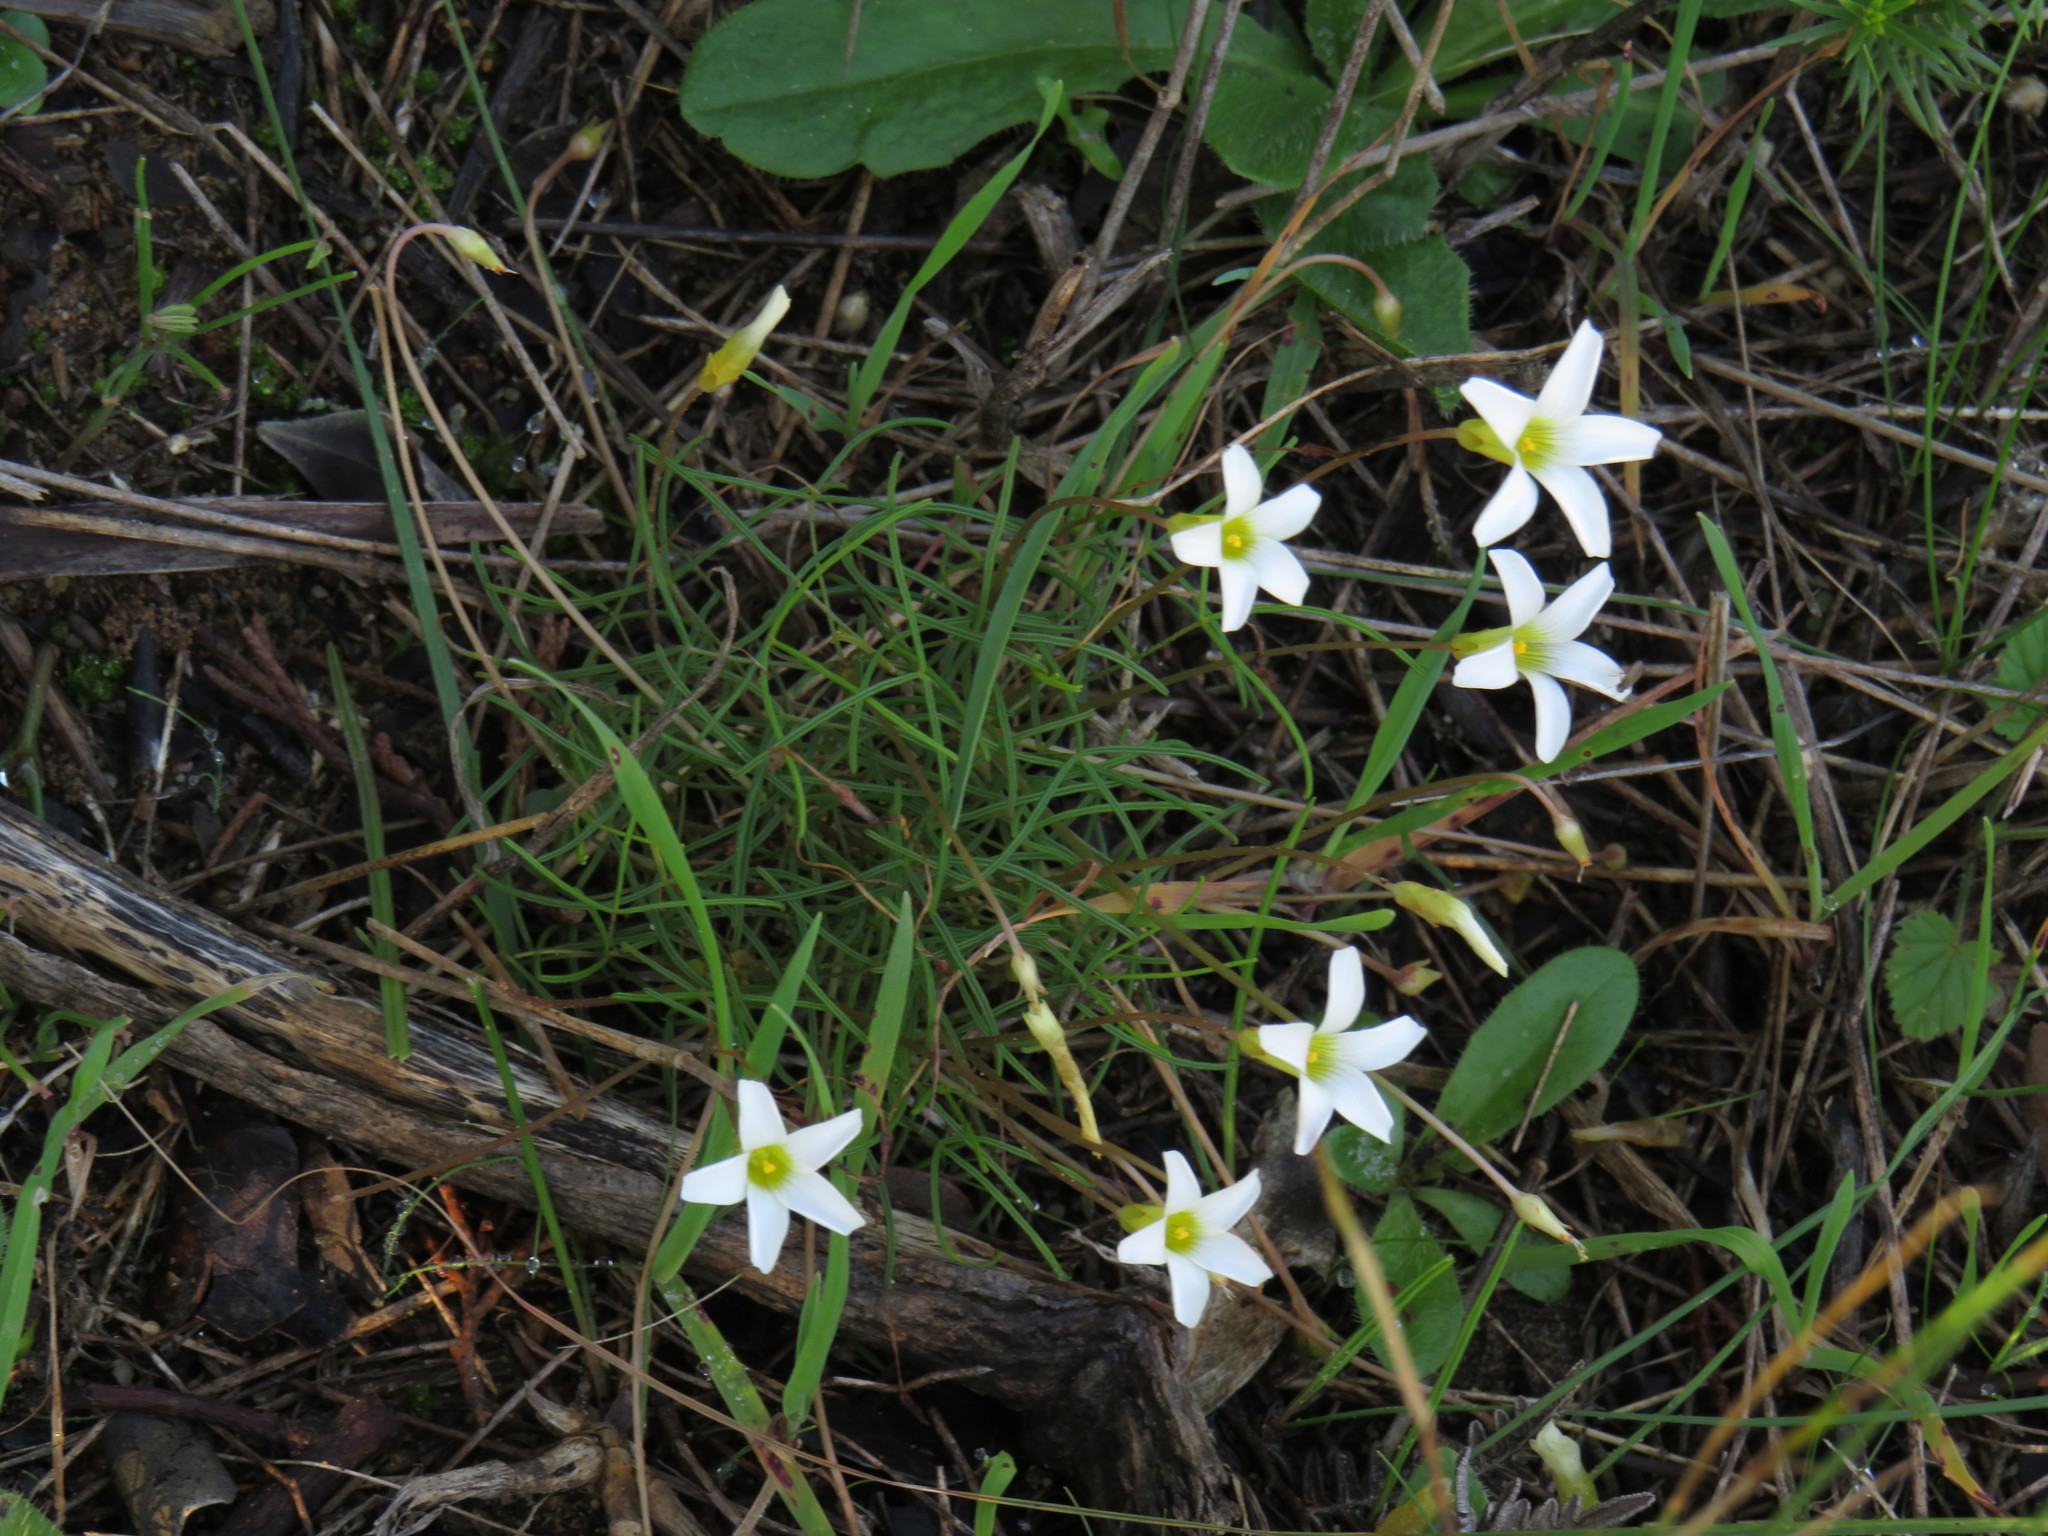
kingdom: Plantae
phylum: Tracheophyta
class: Magnoliopsida
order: Oxalidales
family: Oxalidaceae
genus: Oxalis
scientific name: Oxalis polyphylla
